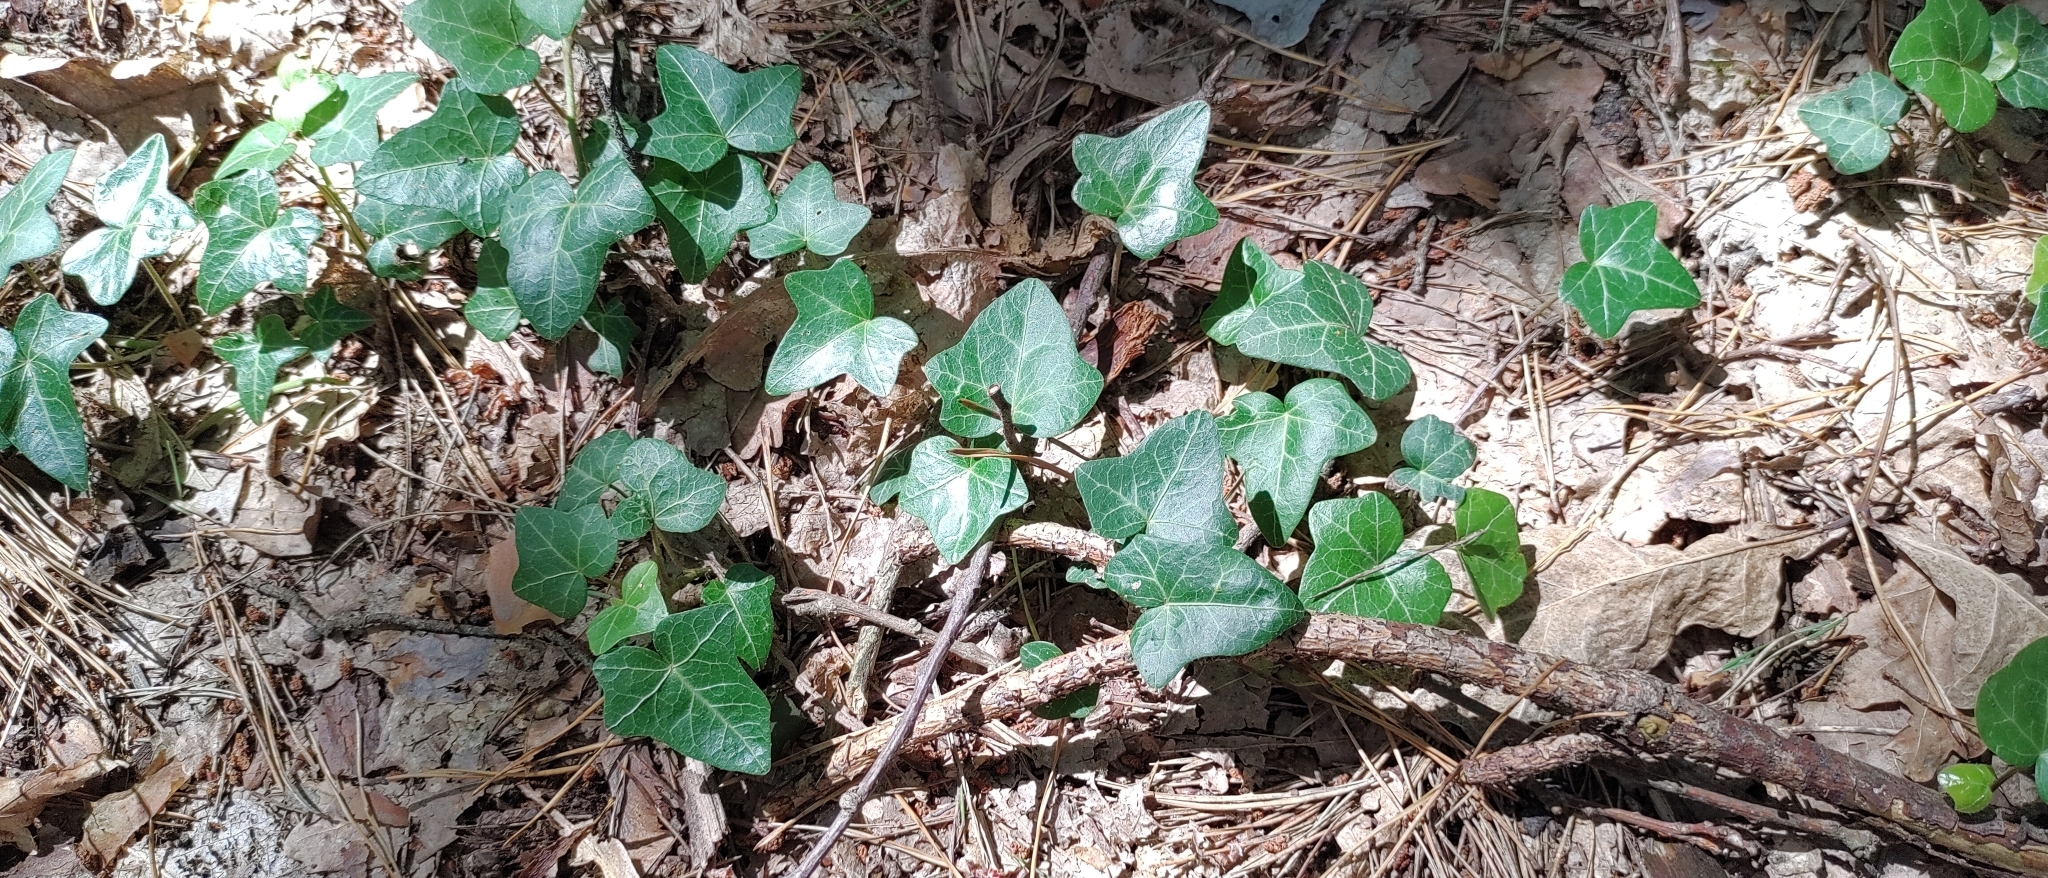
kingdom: Plantae
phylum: Tracheophyta
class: Magnoliopsida
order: Apiales
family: Araliaceae
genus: Hedera
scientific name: Hedera helix
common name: Ivy
